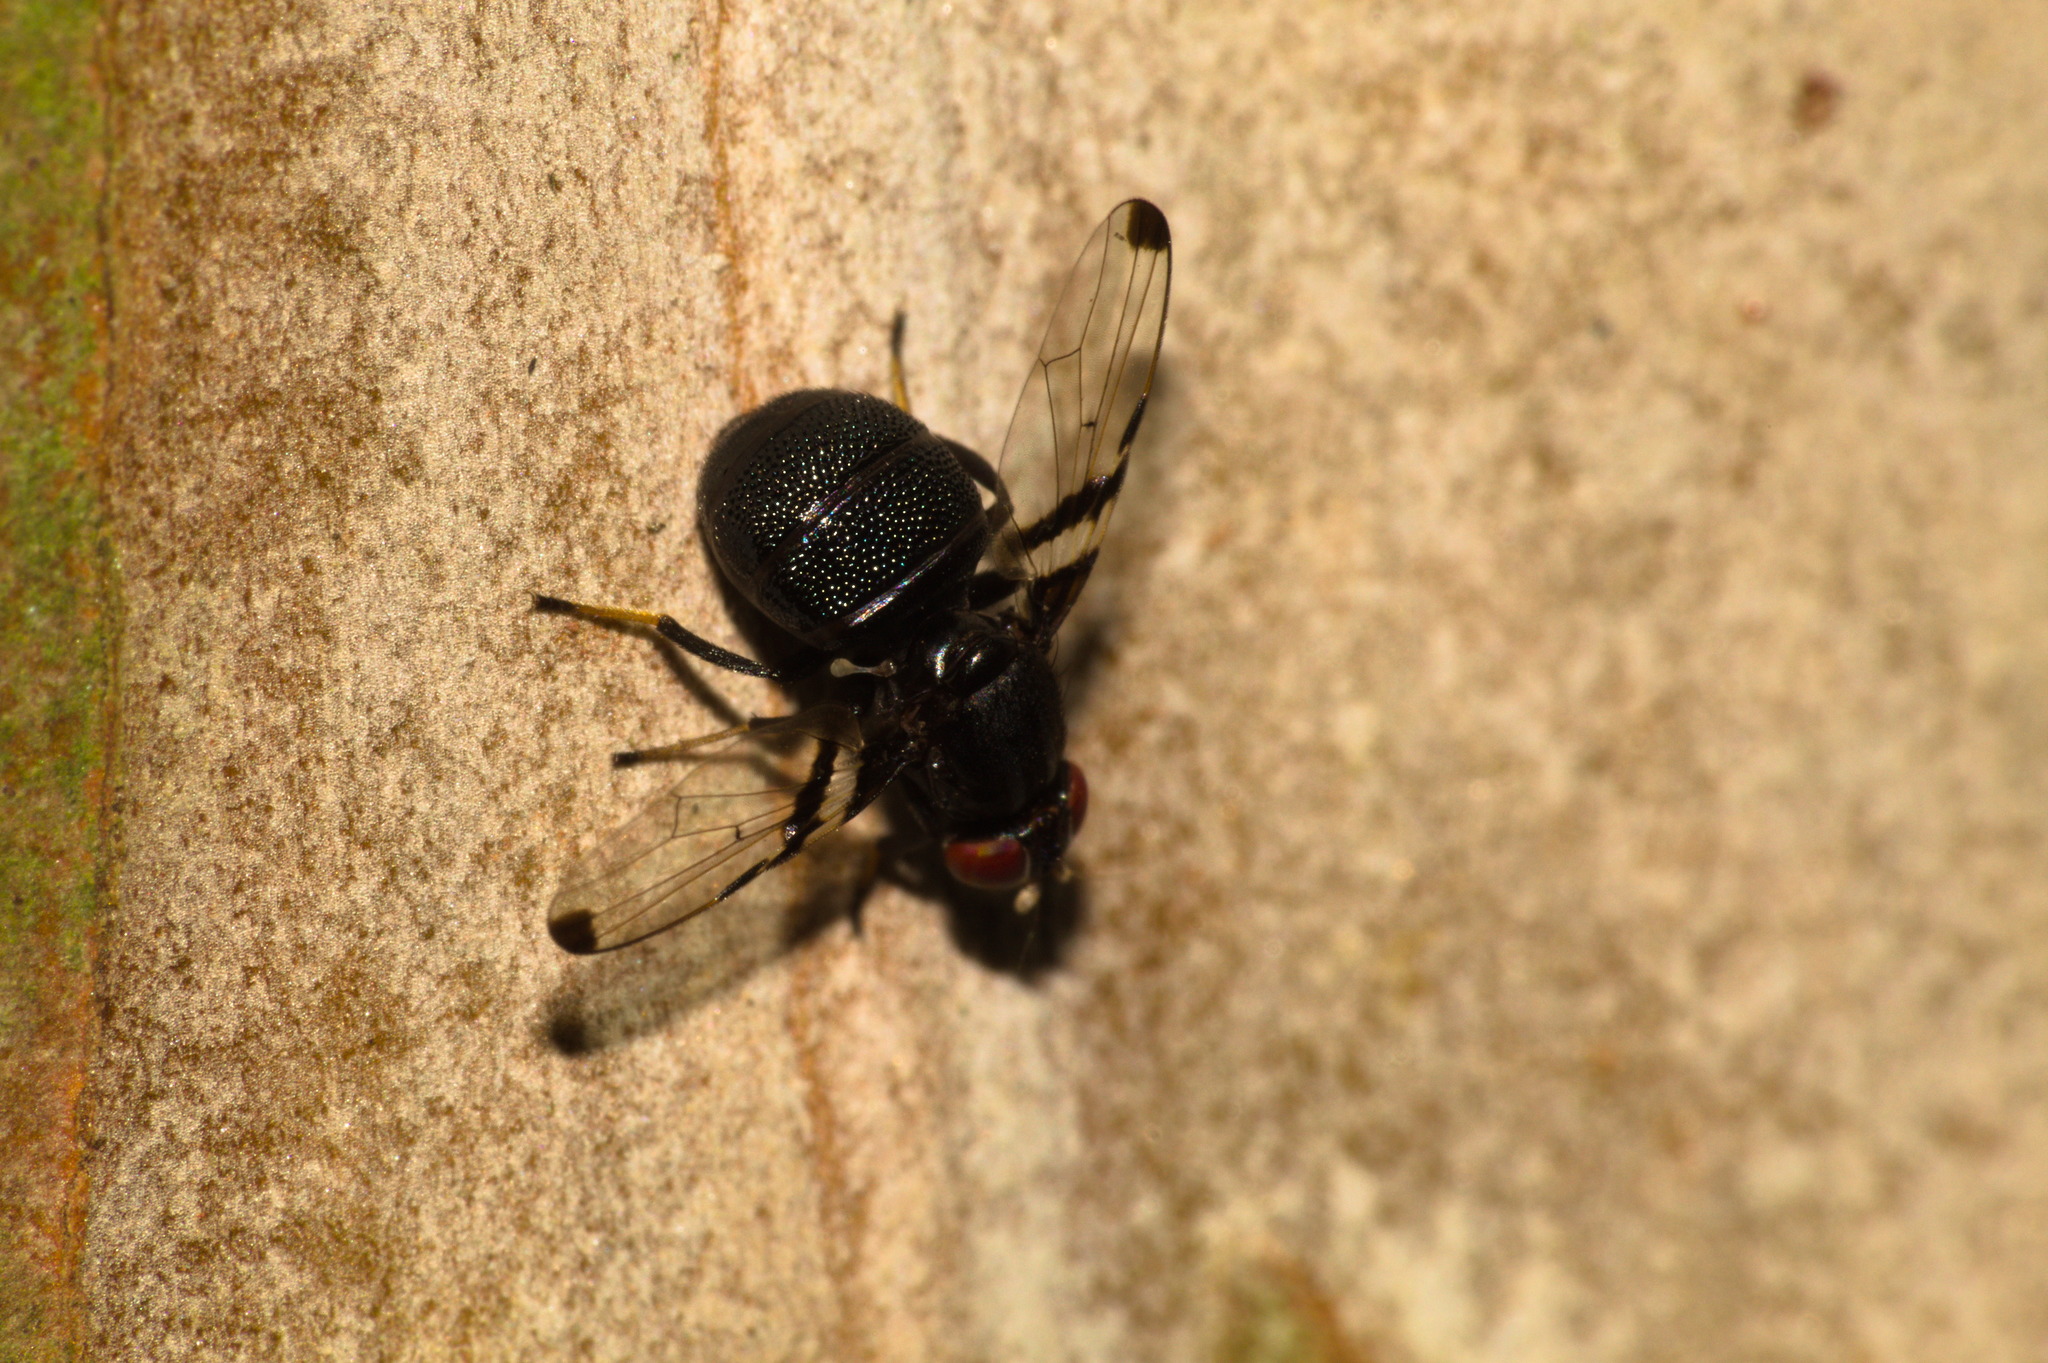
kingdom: Animalia
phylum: Arthropoda
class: Insecta
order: Diptera
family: Ulidiidae
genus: Acrostictella
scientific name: Acrostictella parallela
